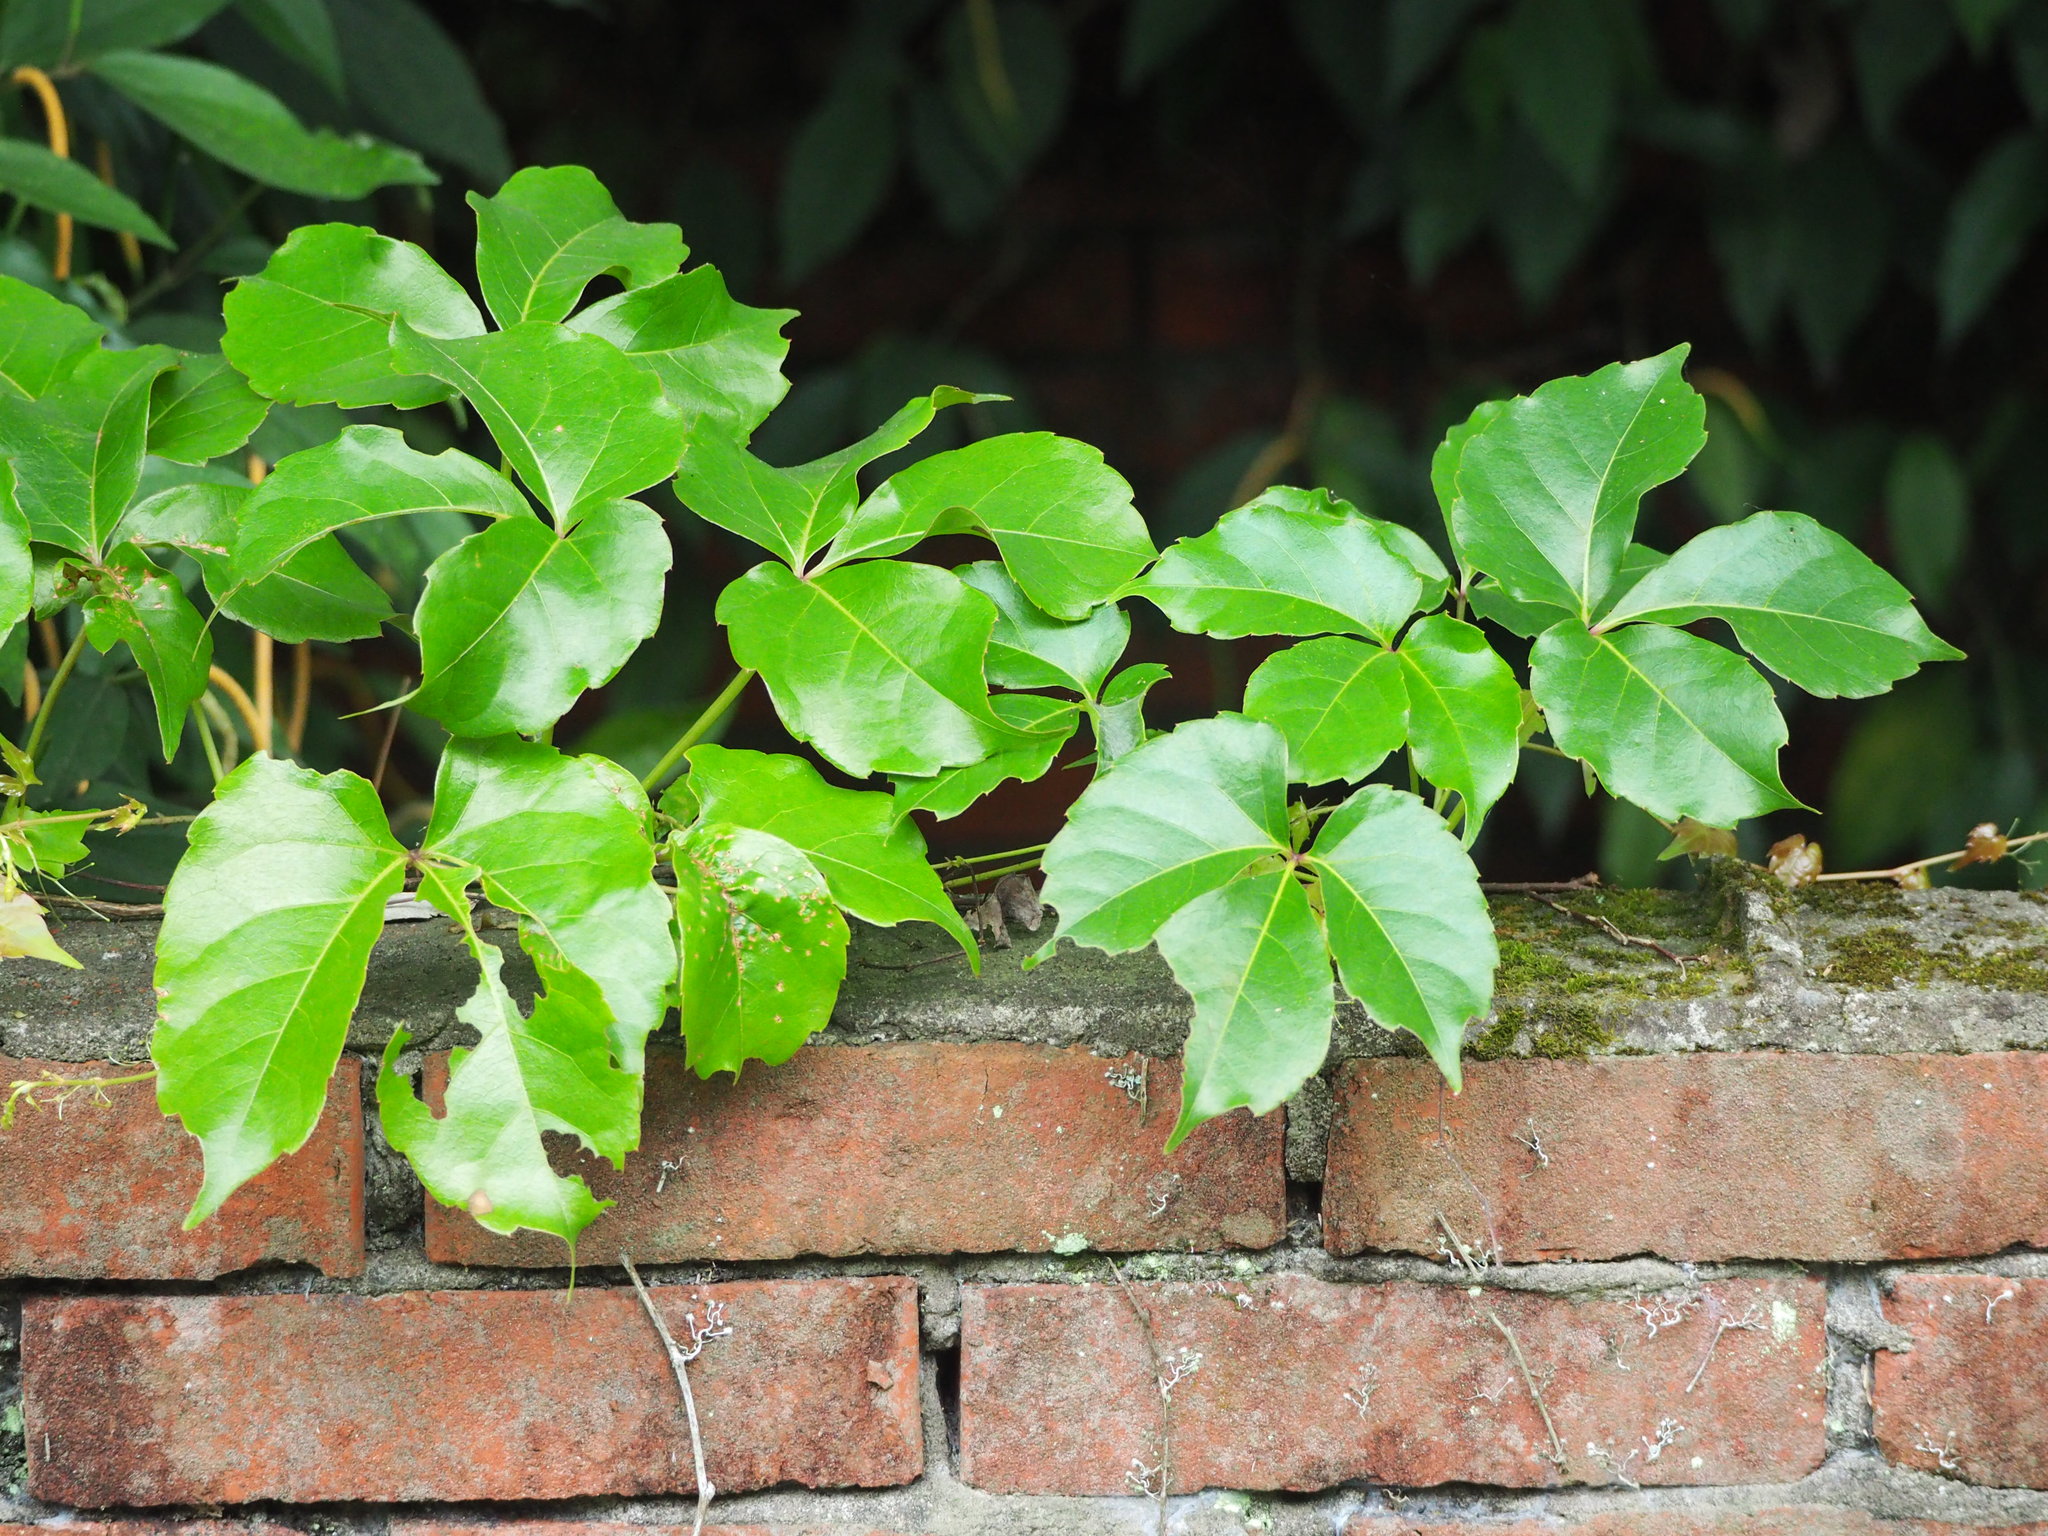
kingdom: Plantae
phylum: Tracheophyta
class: Magnoliopsida
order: Vitales
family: Vitaceae
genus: Parthenocissus
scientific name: Parthenocissus tricuspidata
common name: Boston ivy
